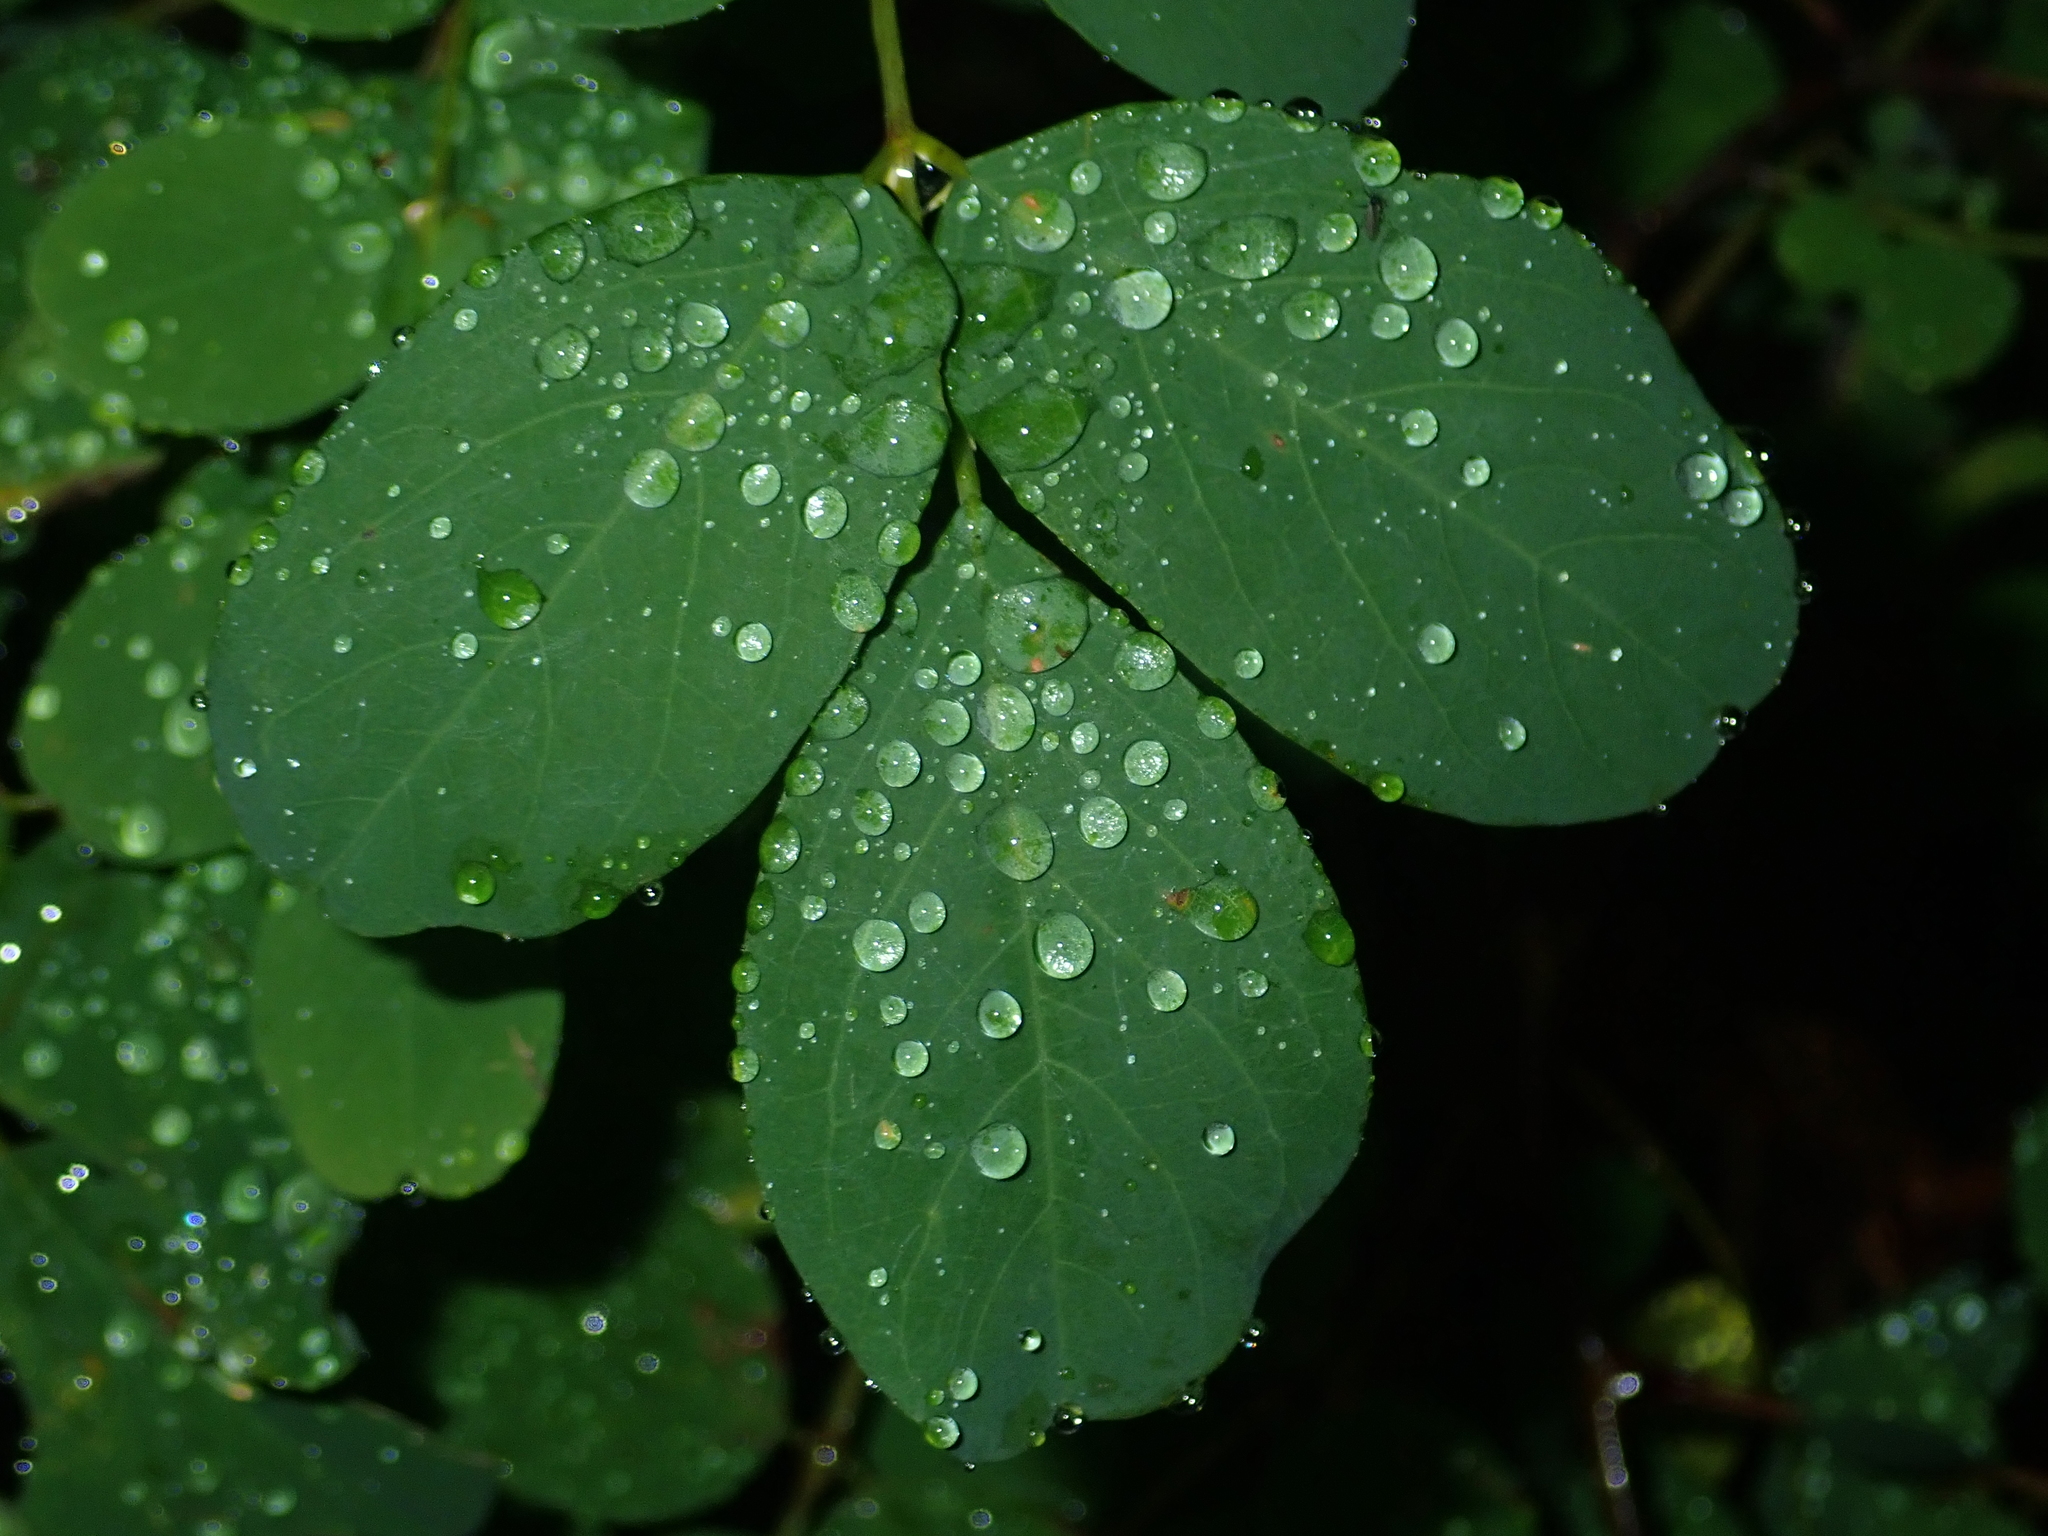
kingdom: Plantae
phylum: Tracheophyta
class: Magnoliopsida
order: Fabales
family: Fabaceae
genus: Robinia
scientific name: Robinia pseudoacacia
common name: Black locust
